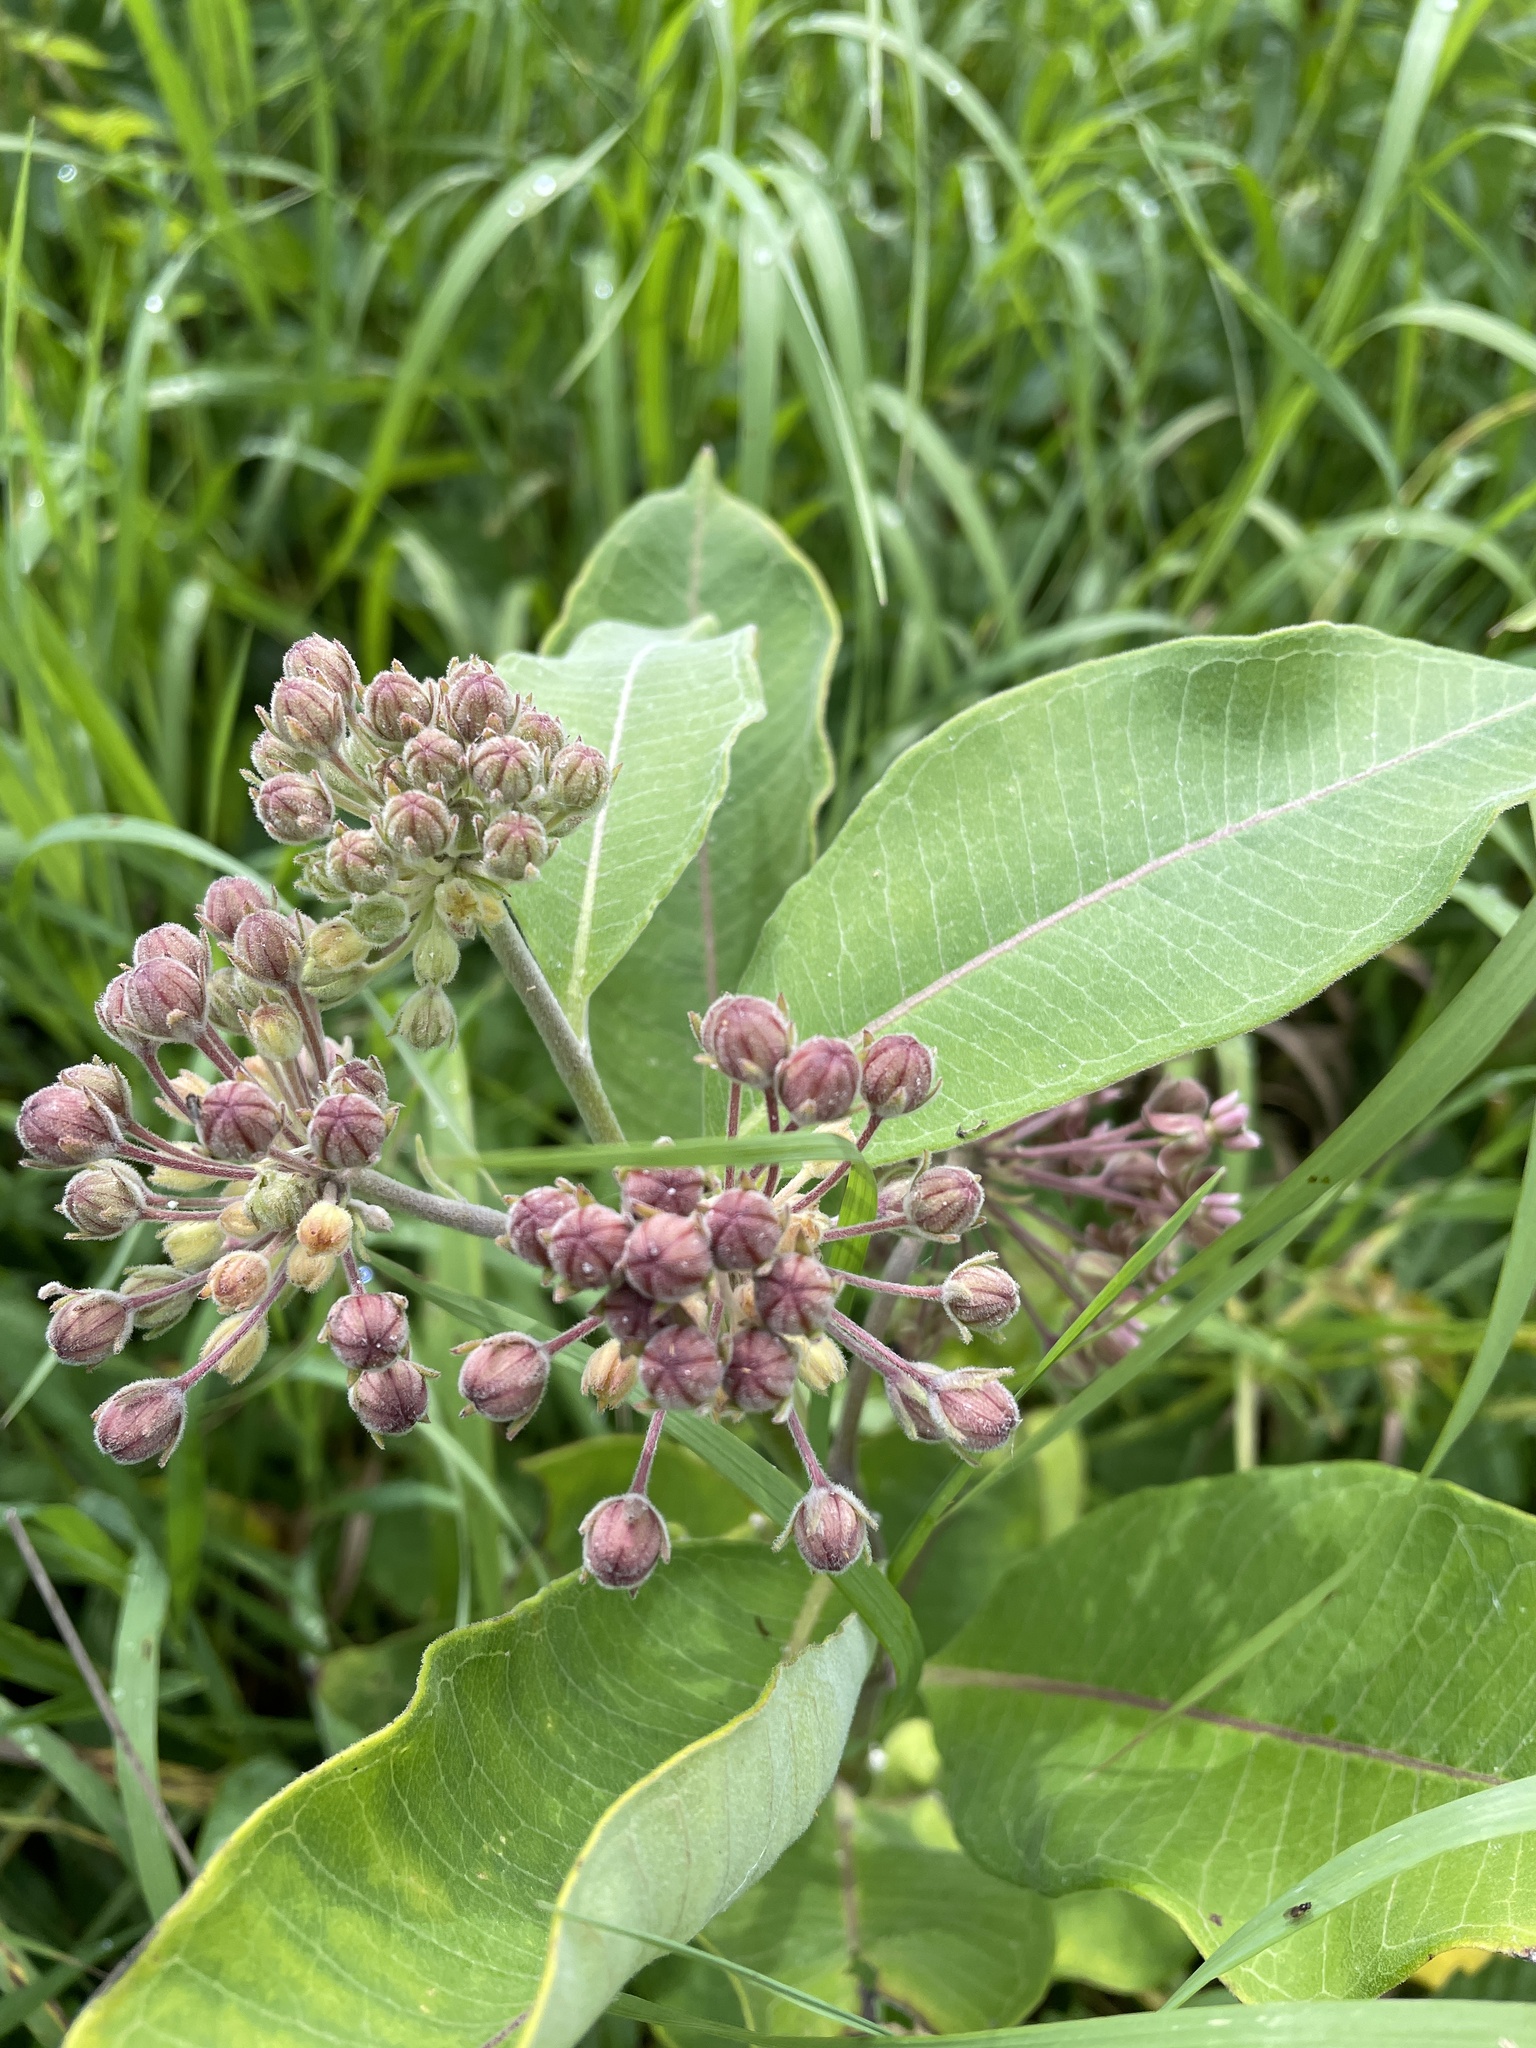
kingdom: Plantae
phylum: Tracheophyta
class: Magnoliopsida
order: Gentianales
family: Apocynaceae
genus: Asclepias
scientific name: Asclepias syriaca
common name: Common milkweed
